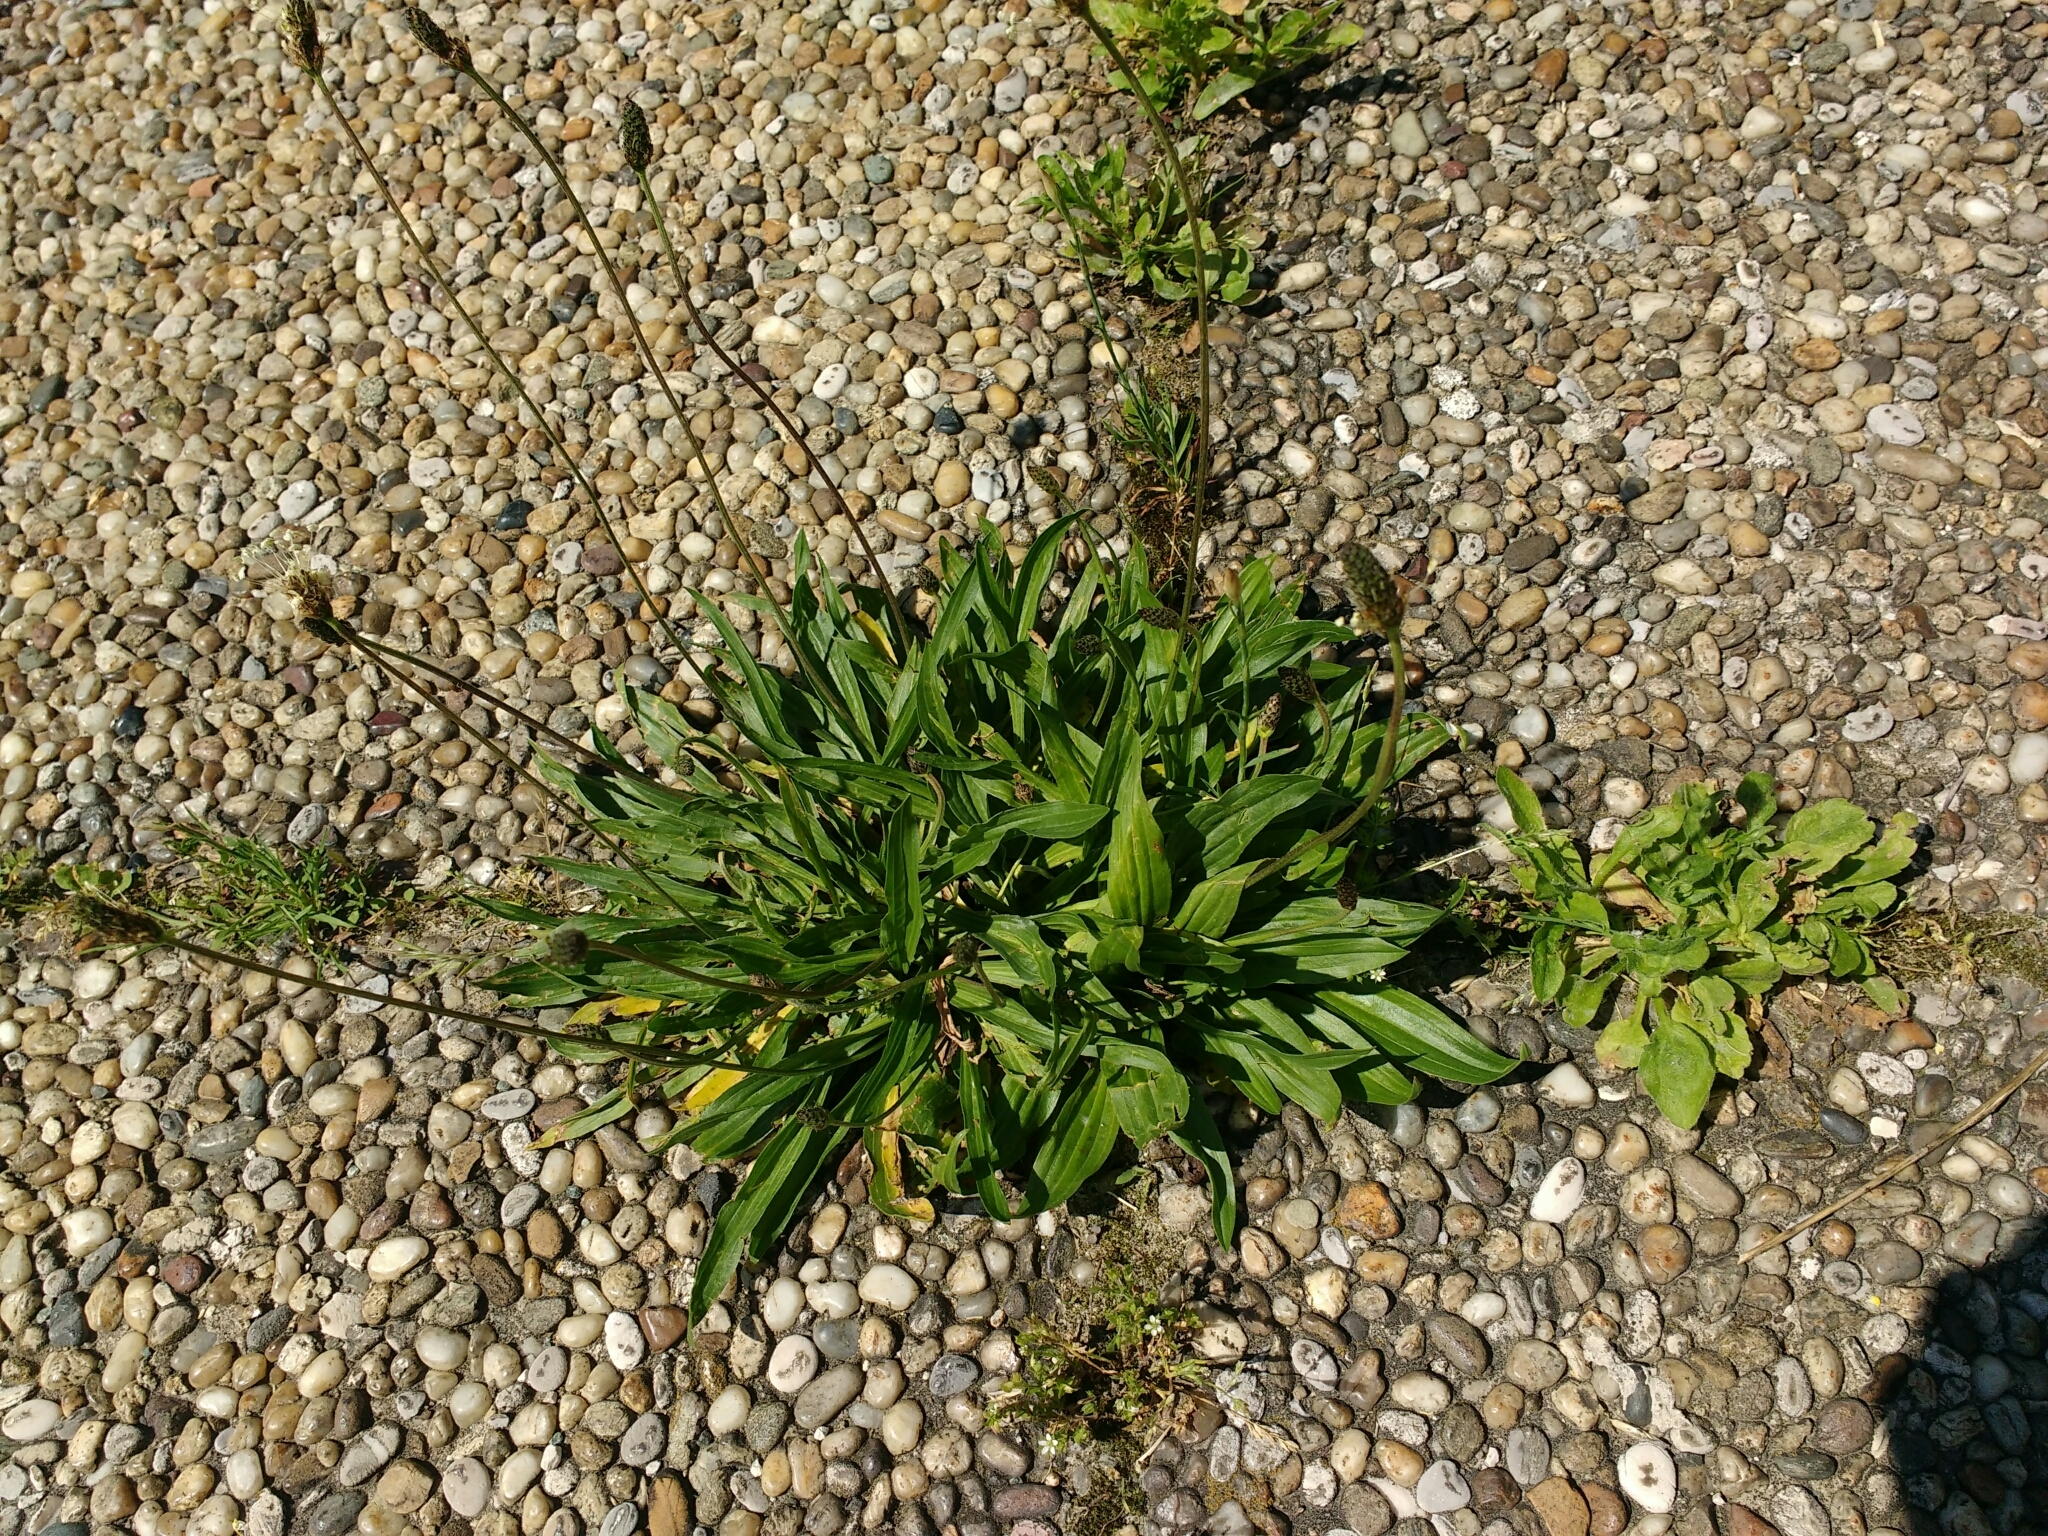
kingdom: Plantae
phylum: Tracheophyta
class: Magnoliopsida
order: Lamiales
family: Plantaginaceae
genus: Plantago
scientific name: Plantago lanceolata
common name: Ribwort plantain
